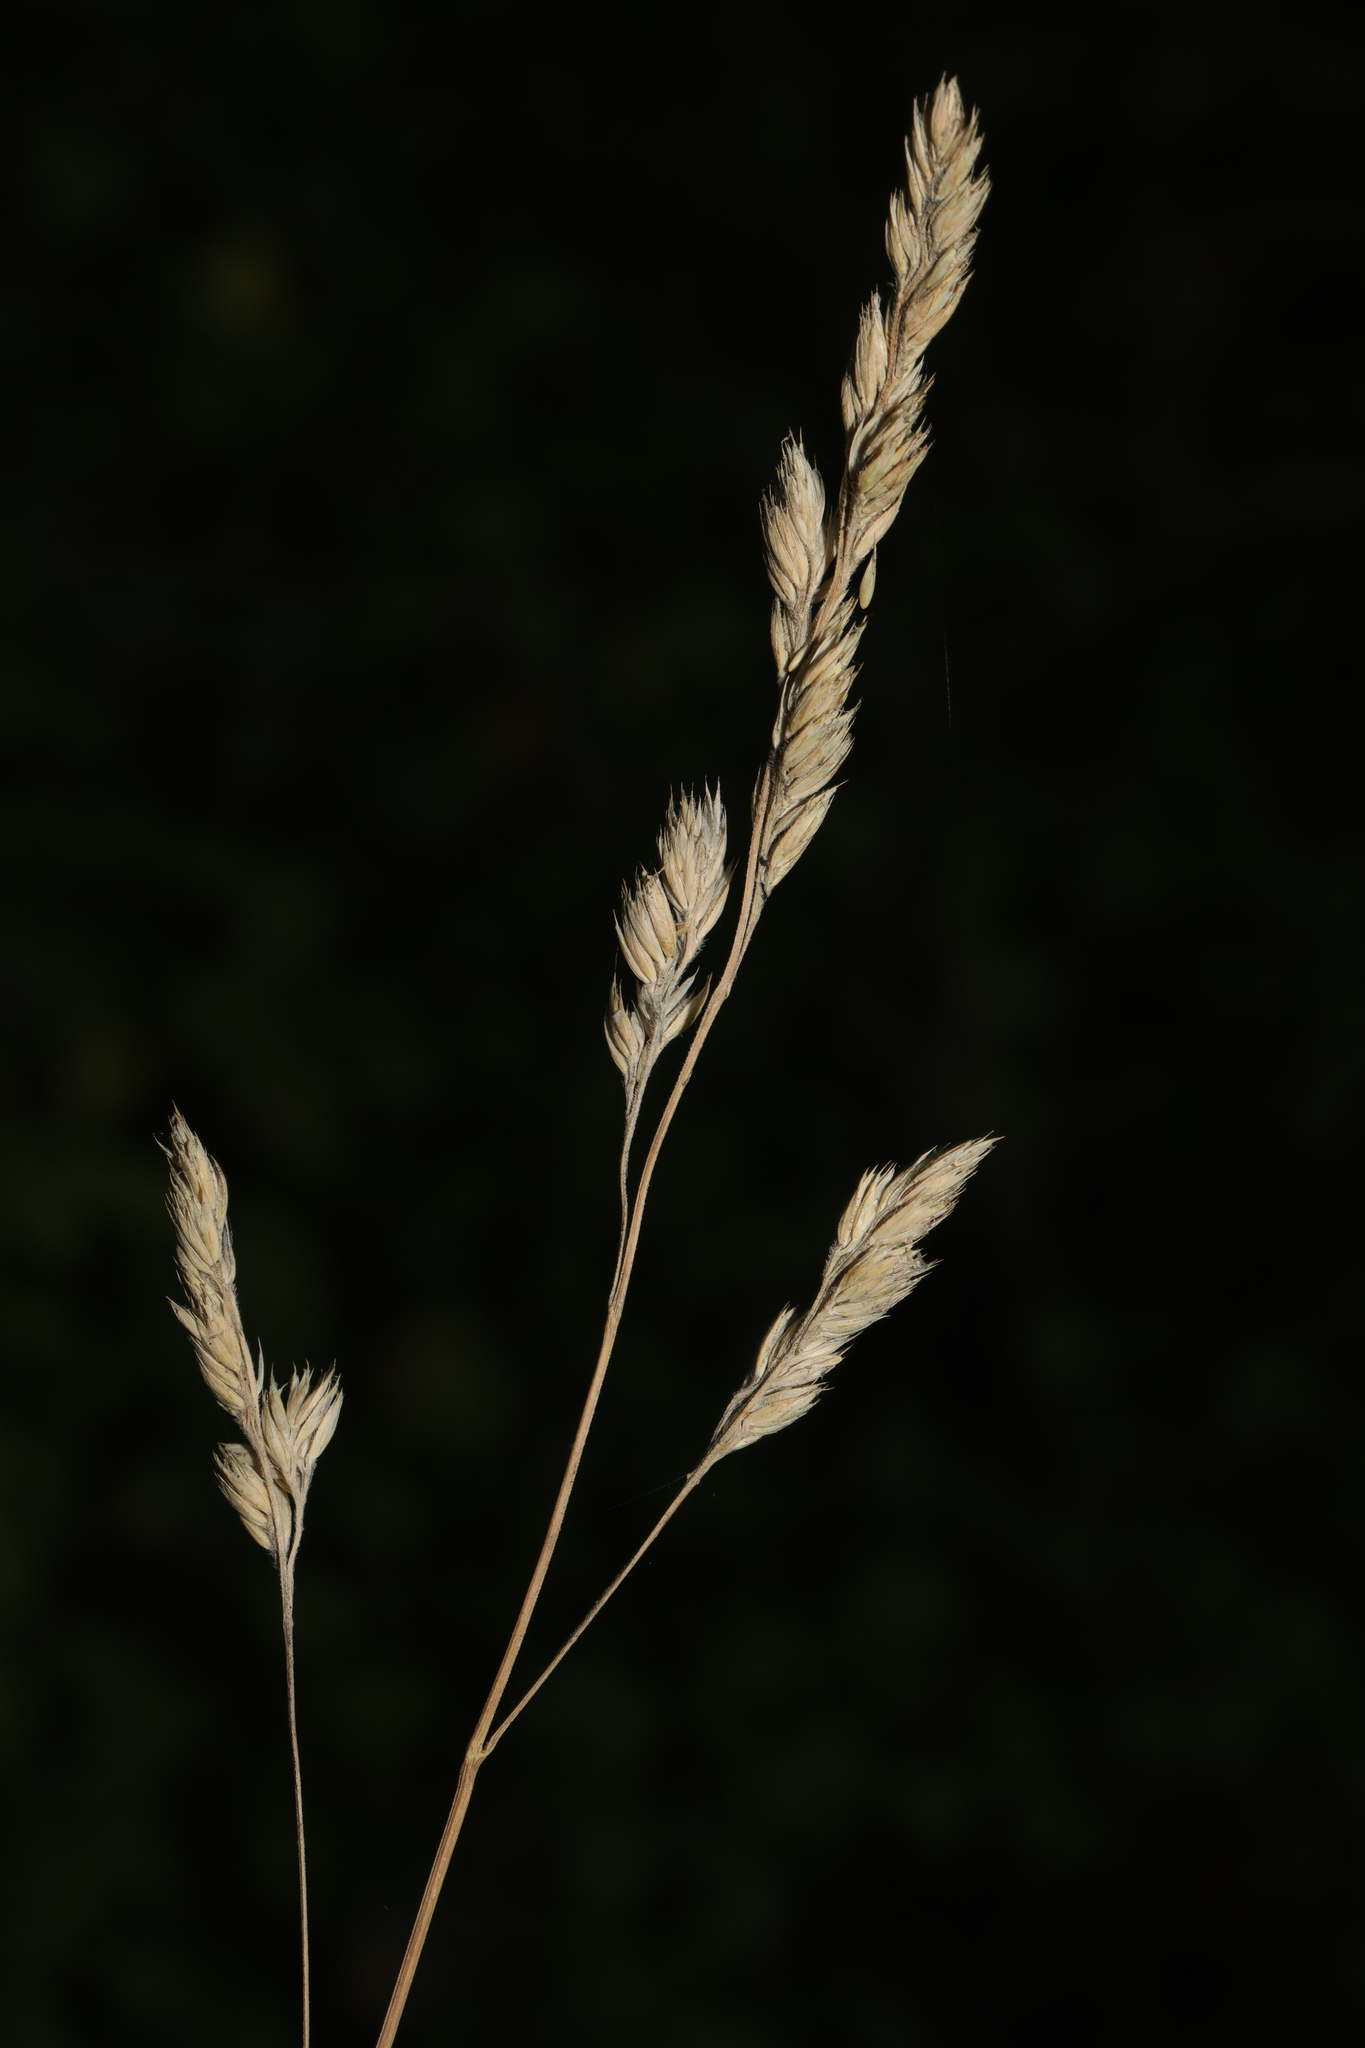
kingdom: Plantae
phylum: Tracheophyta
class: Liliopsida
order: Poales
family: Poaceae
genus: Dactylis
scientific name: Dactylis glomerata
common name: Orchardgrass
